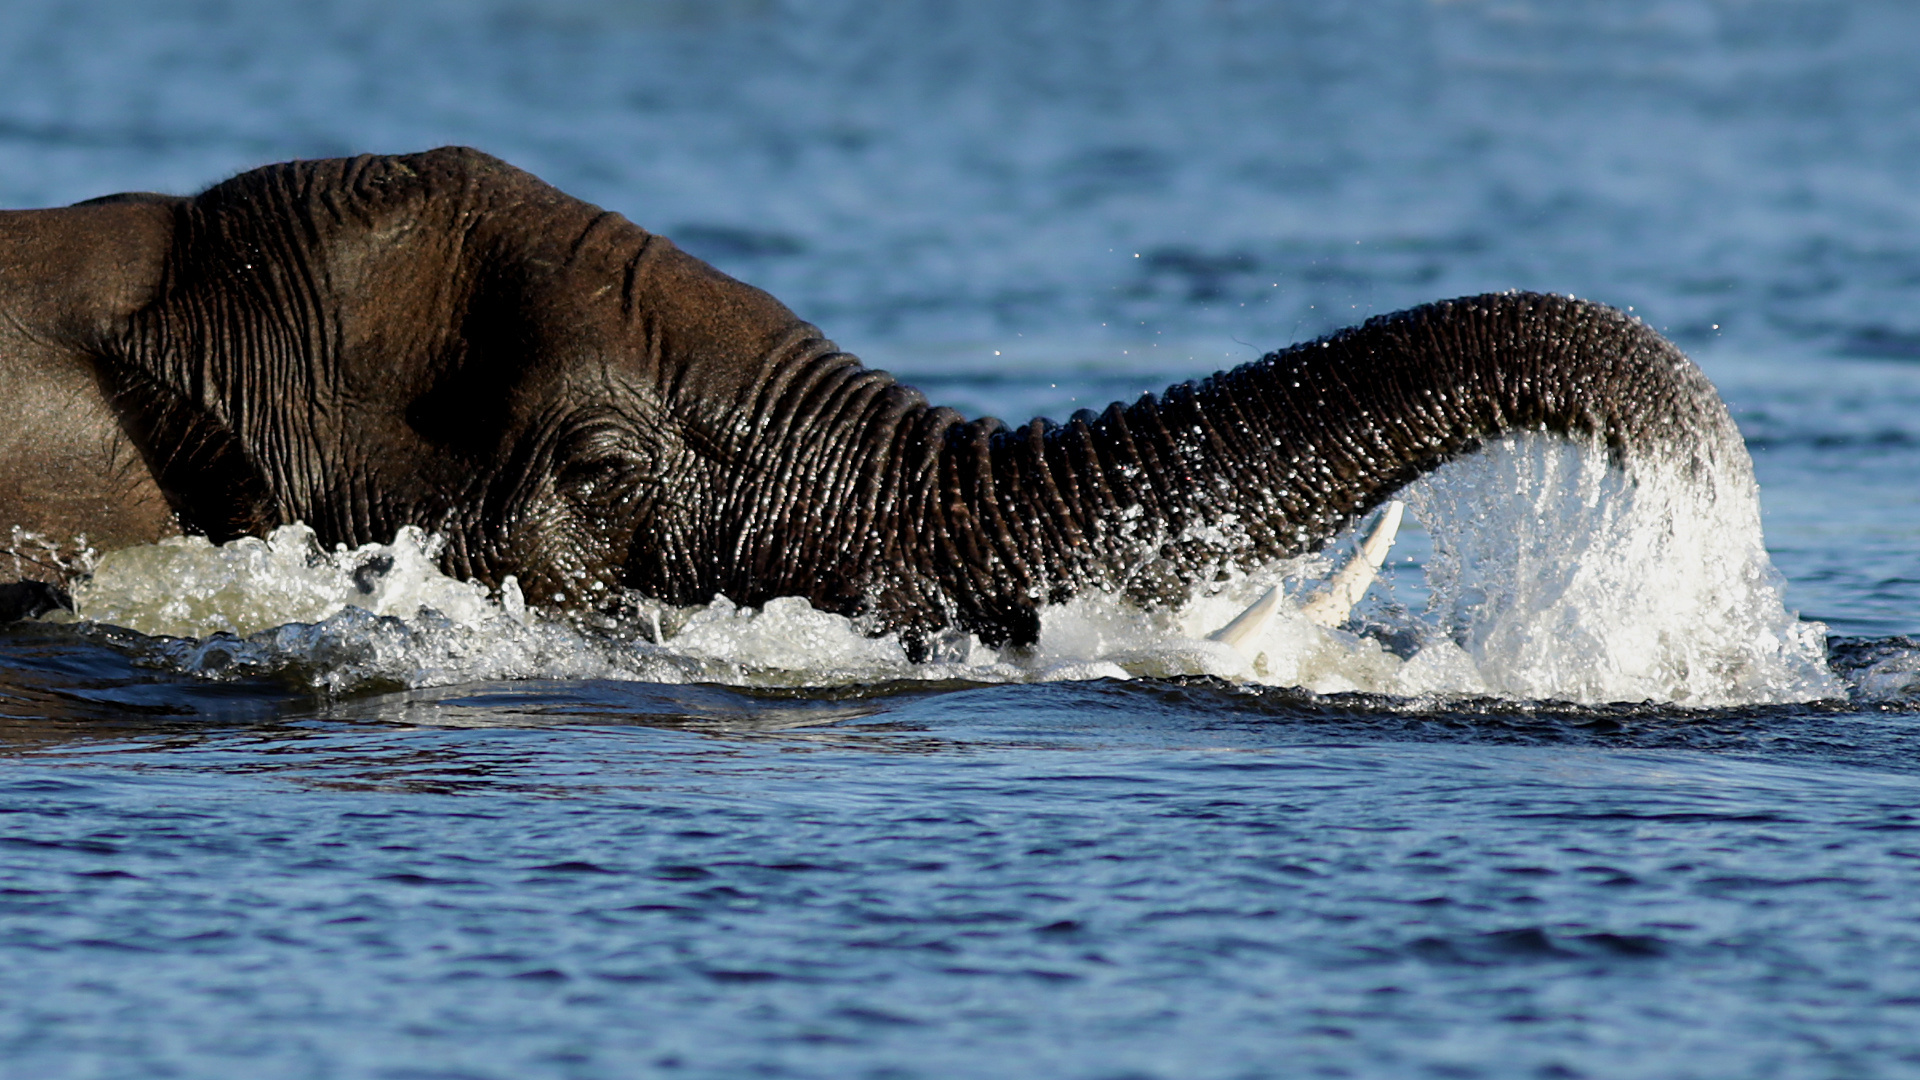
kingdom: Animalia
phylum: Chordata
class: Mammalia
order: Proboscidea
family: Elephantidae
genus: Loxodonta
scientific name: Loxodonta africana
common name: African elephant
